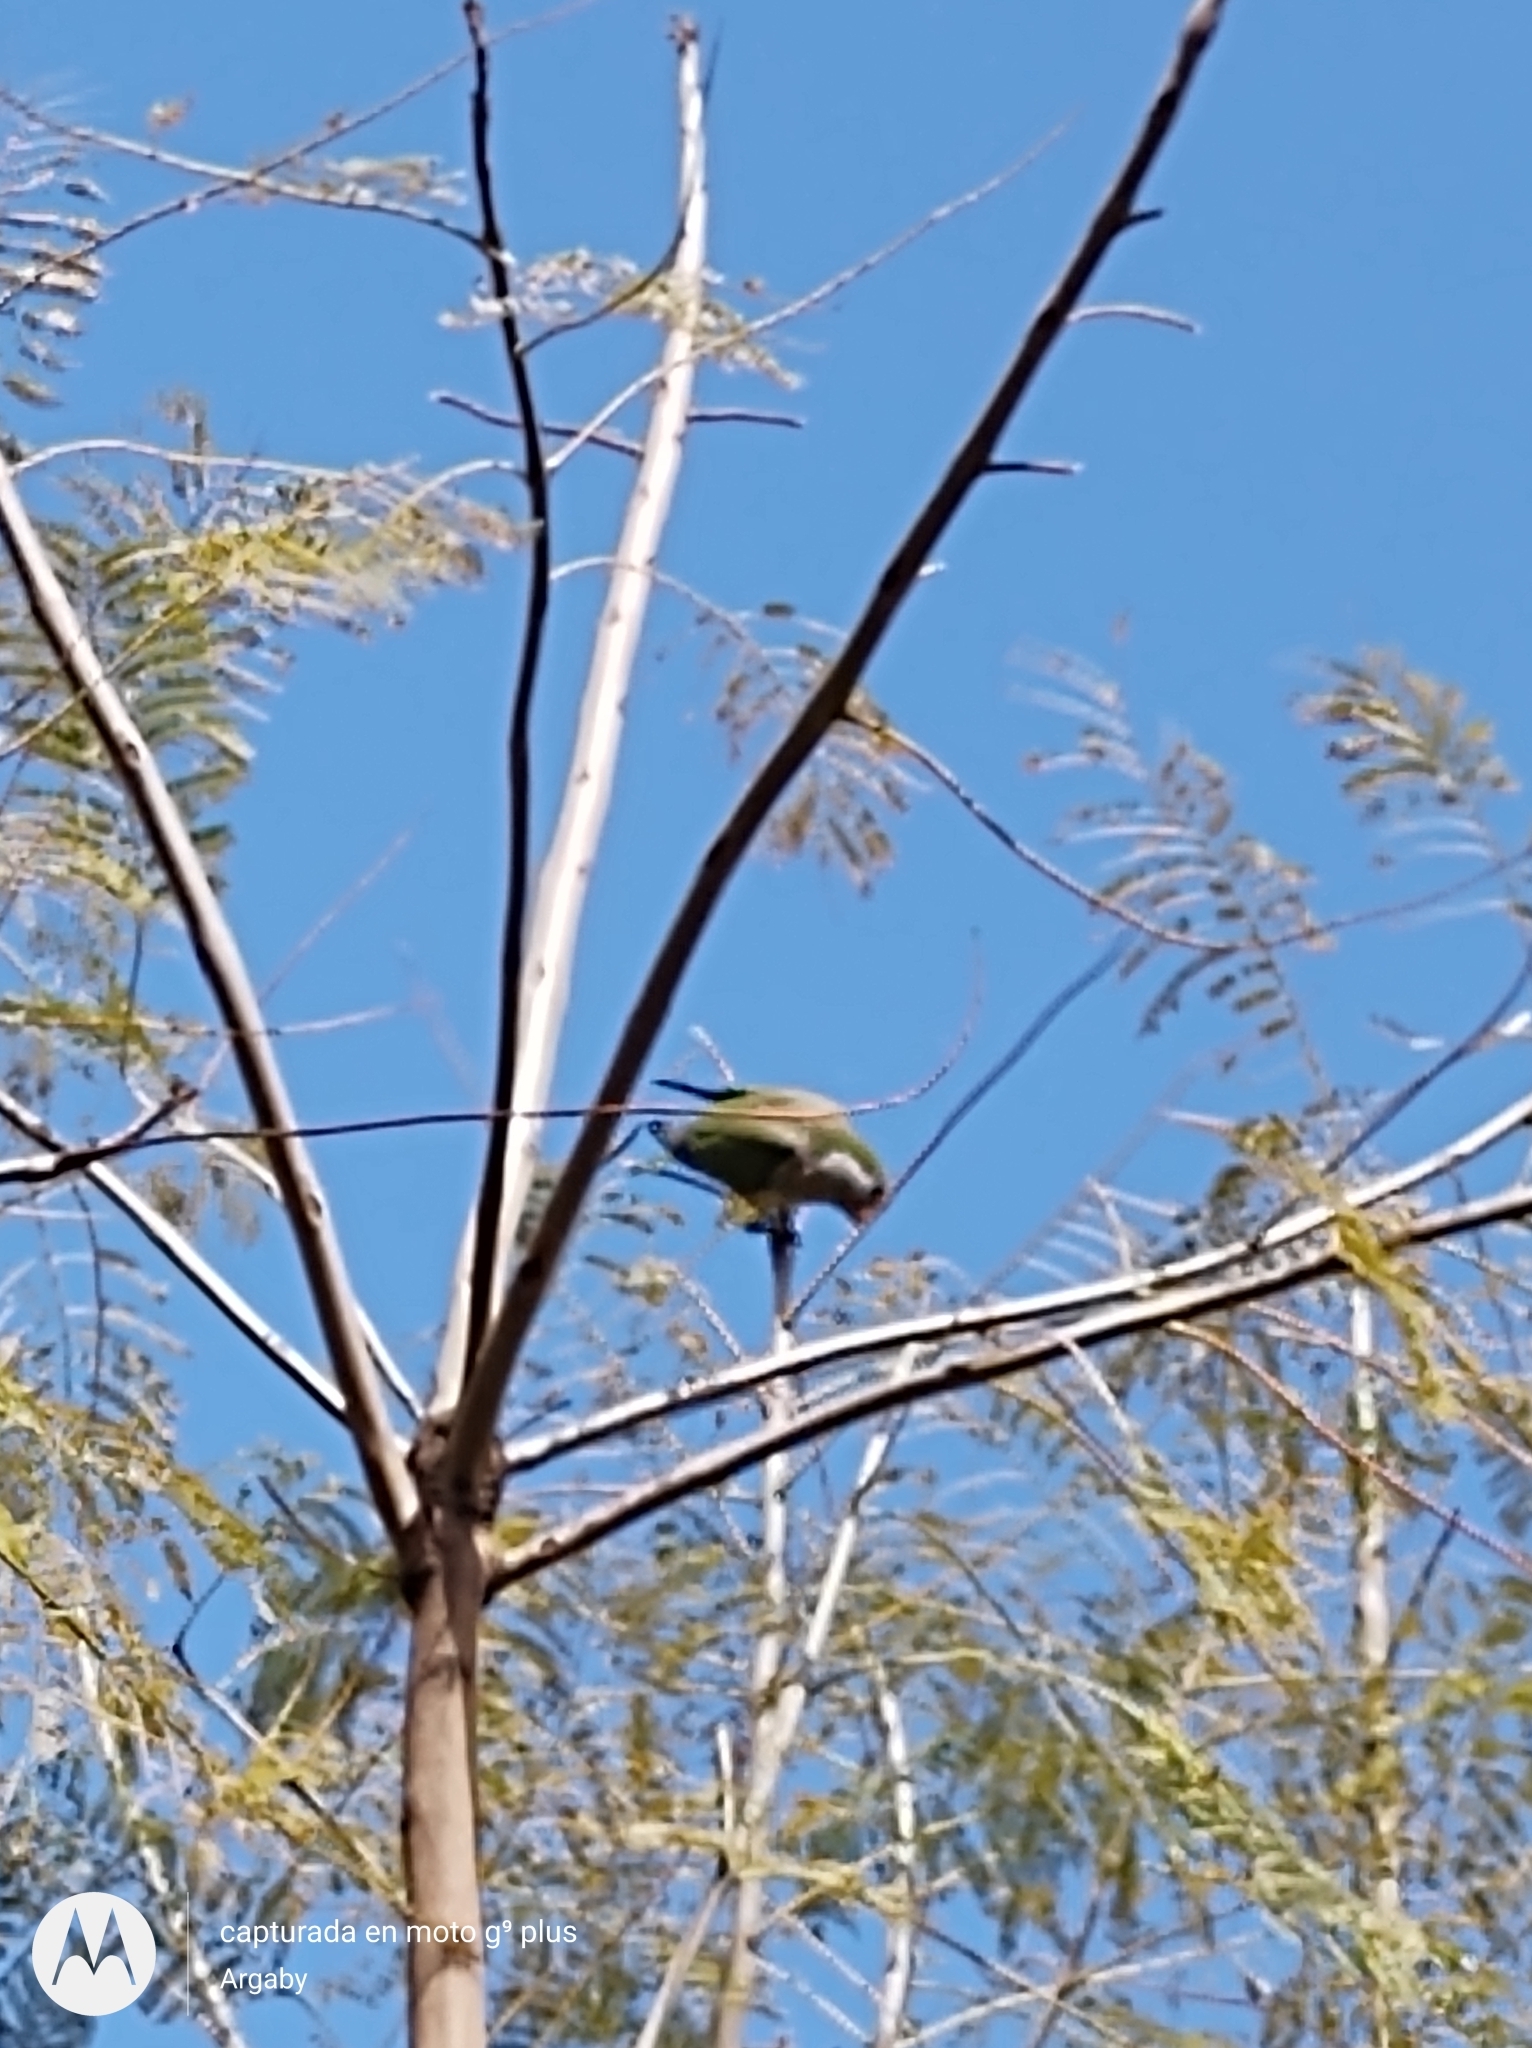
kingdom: Animalia
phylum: Chordata
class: Aves
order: Psittaciformes
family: Psittacidae
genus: Myiopsitta
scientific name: Myiopsitta monachus
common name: Monk parakeet
